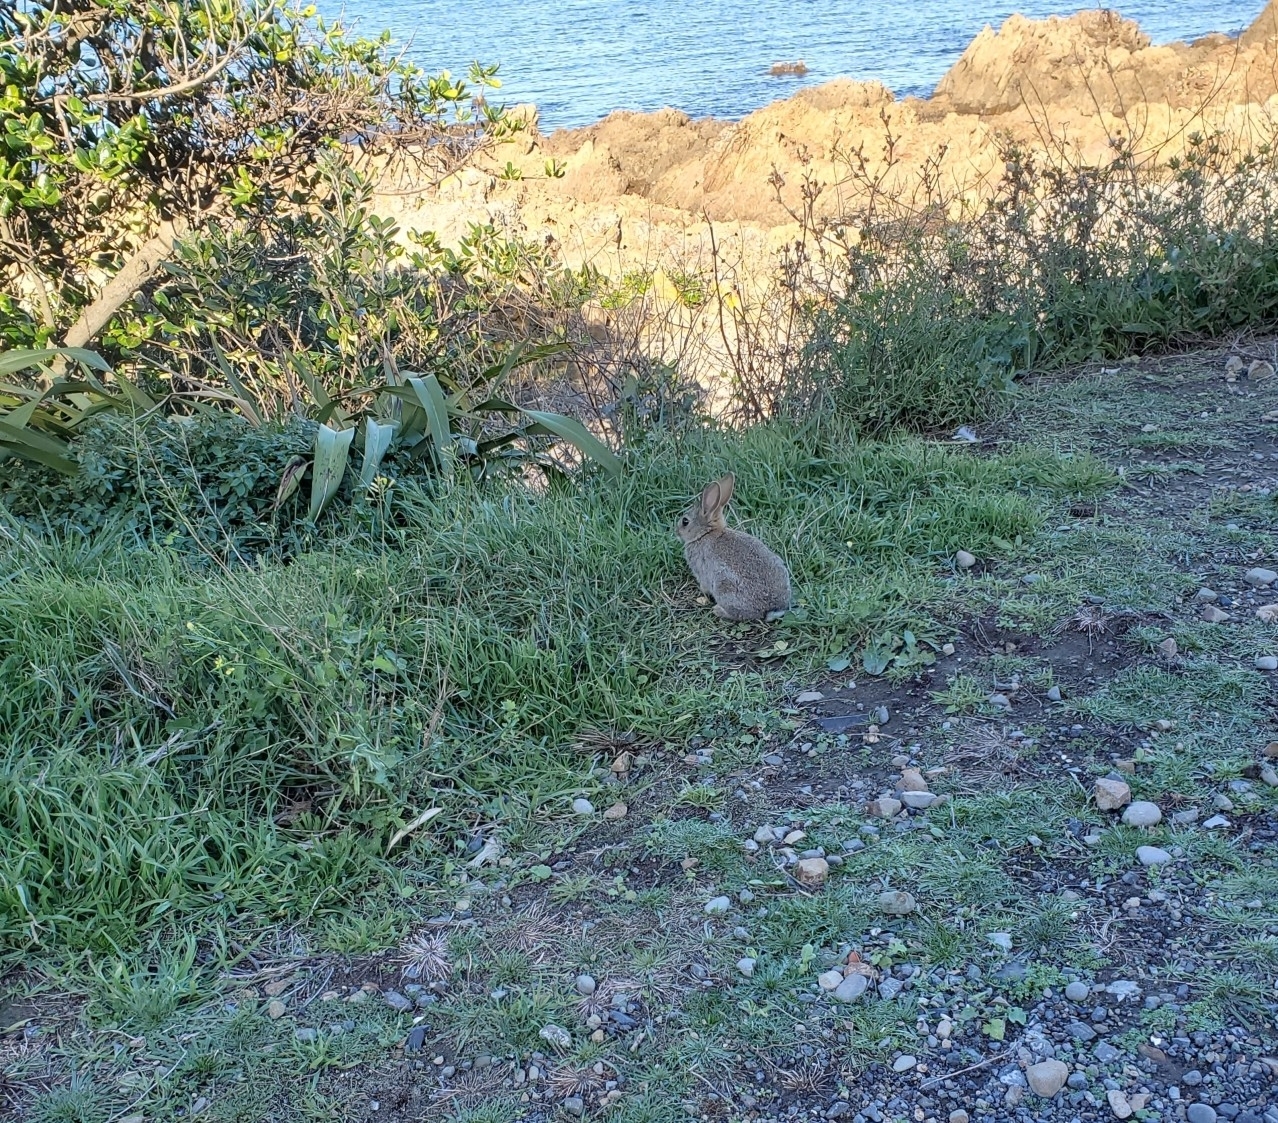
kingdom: Animalia
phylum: Chordata
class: Mammalia
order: Lagomorpha
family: Leporidae
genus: Oryctolagus
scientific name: Oryctolagus cuniculus
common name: European rabbit
